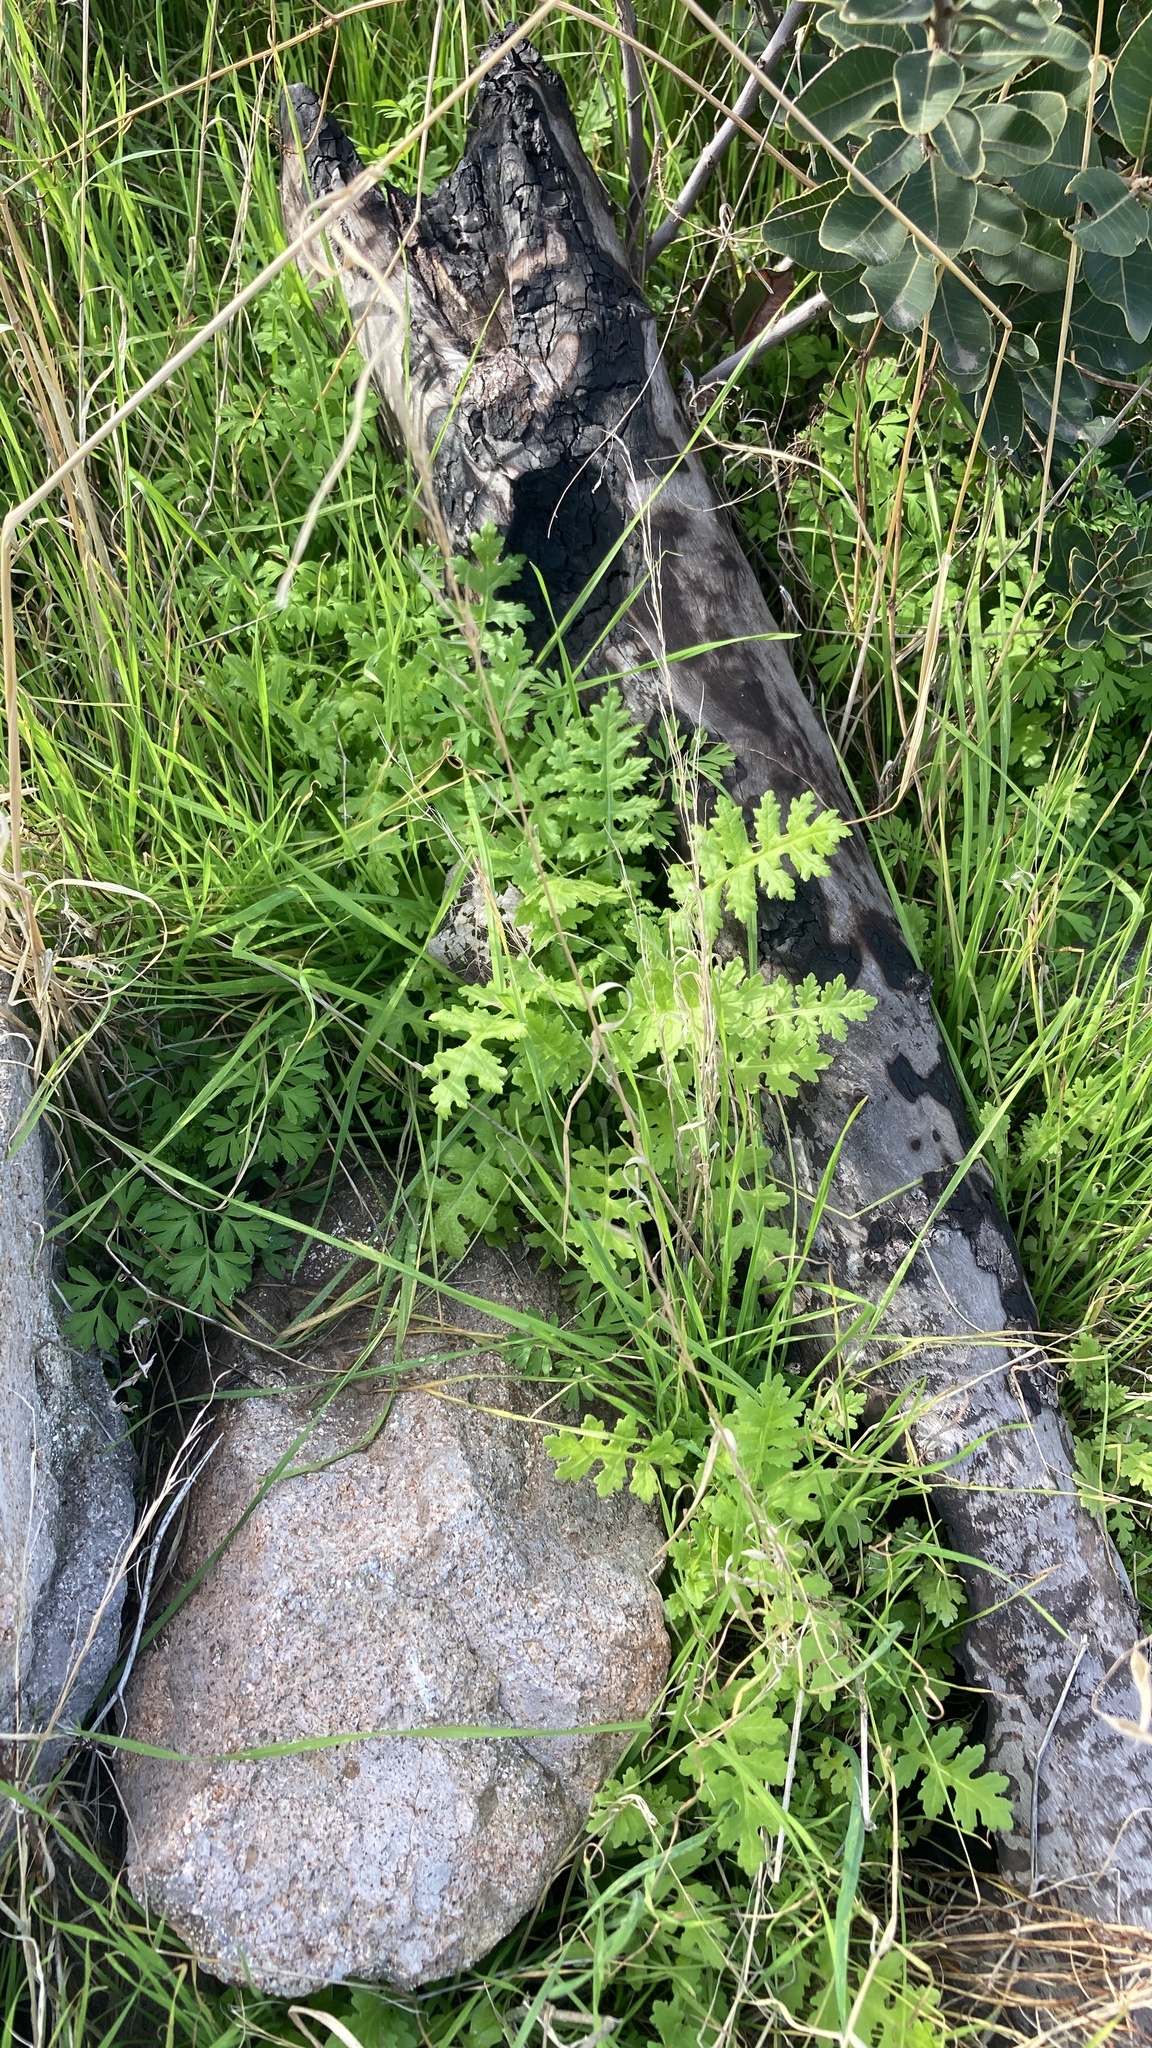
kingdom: Plantae
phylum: Tracheophyta
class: Magnoliopsida
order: Asterales
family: Asteraceae
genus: Moscharia
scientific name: Moscharia pinnatifida
